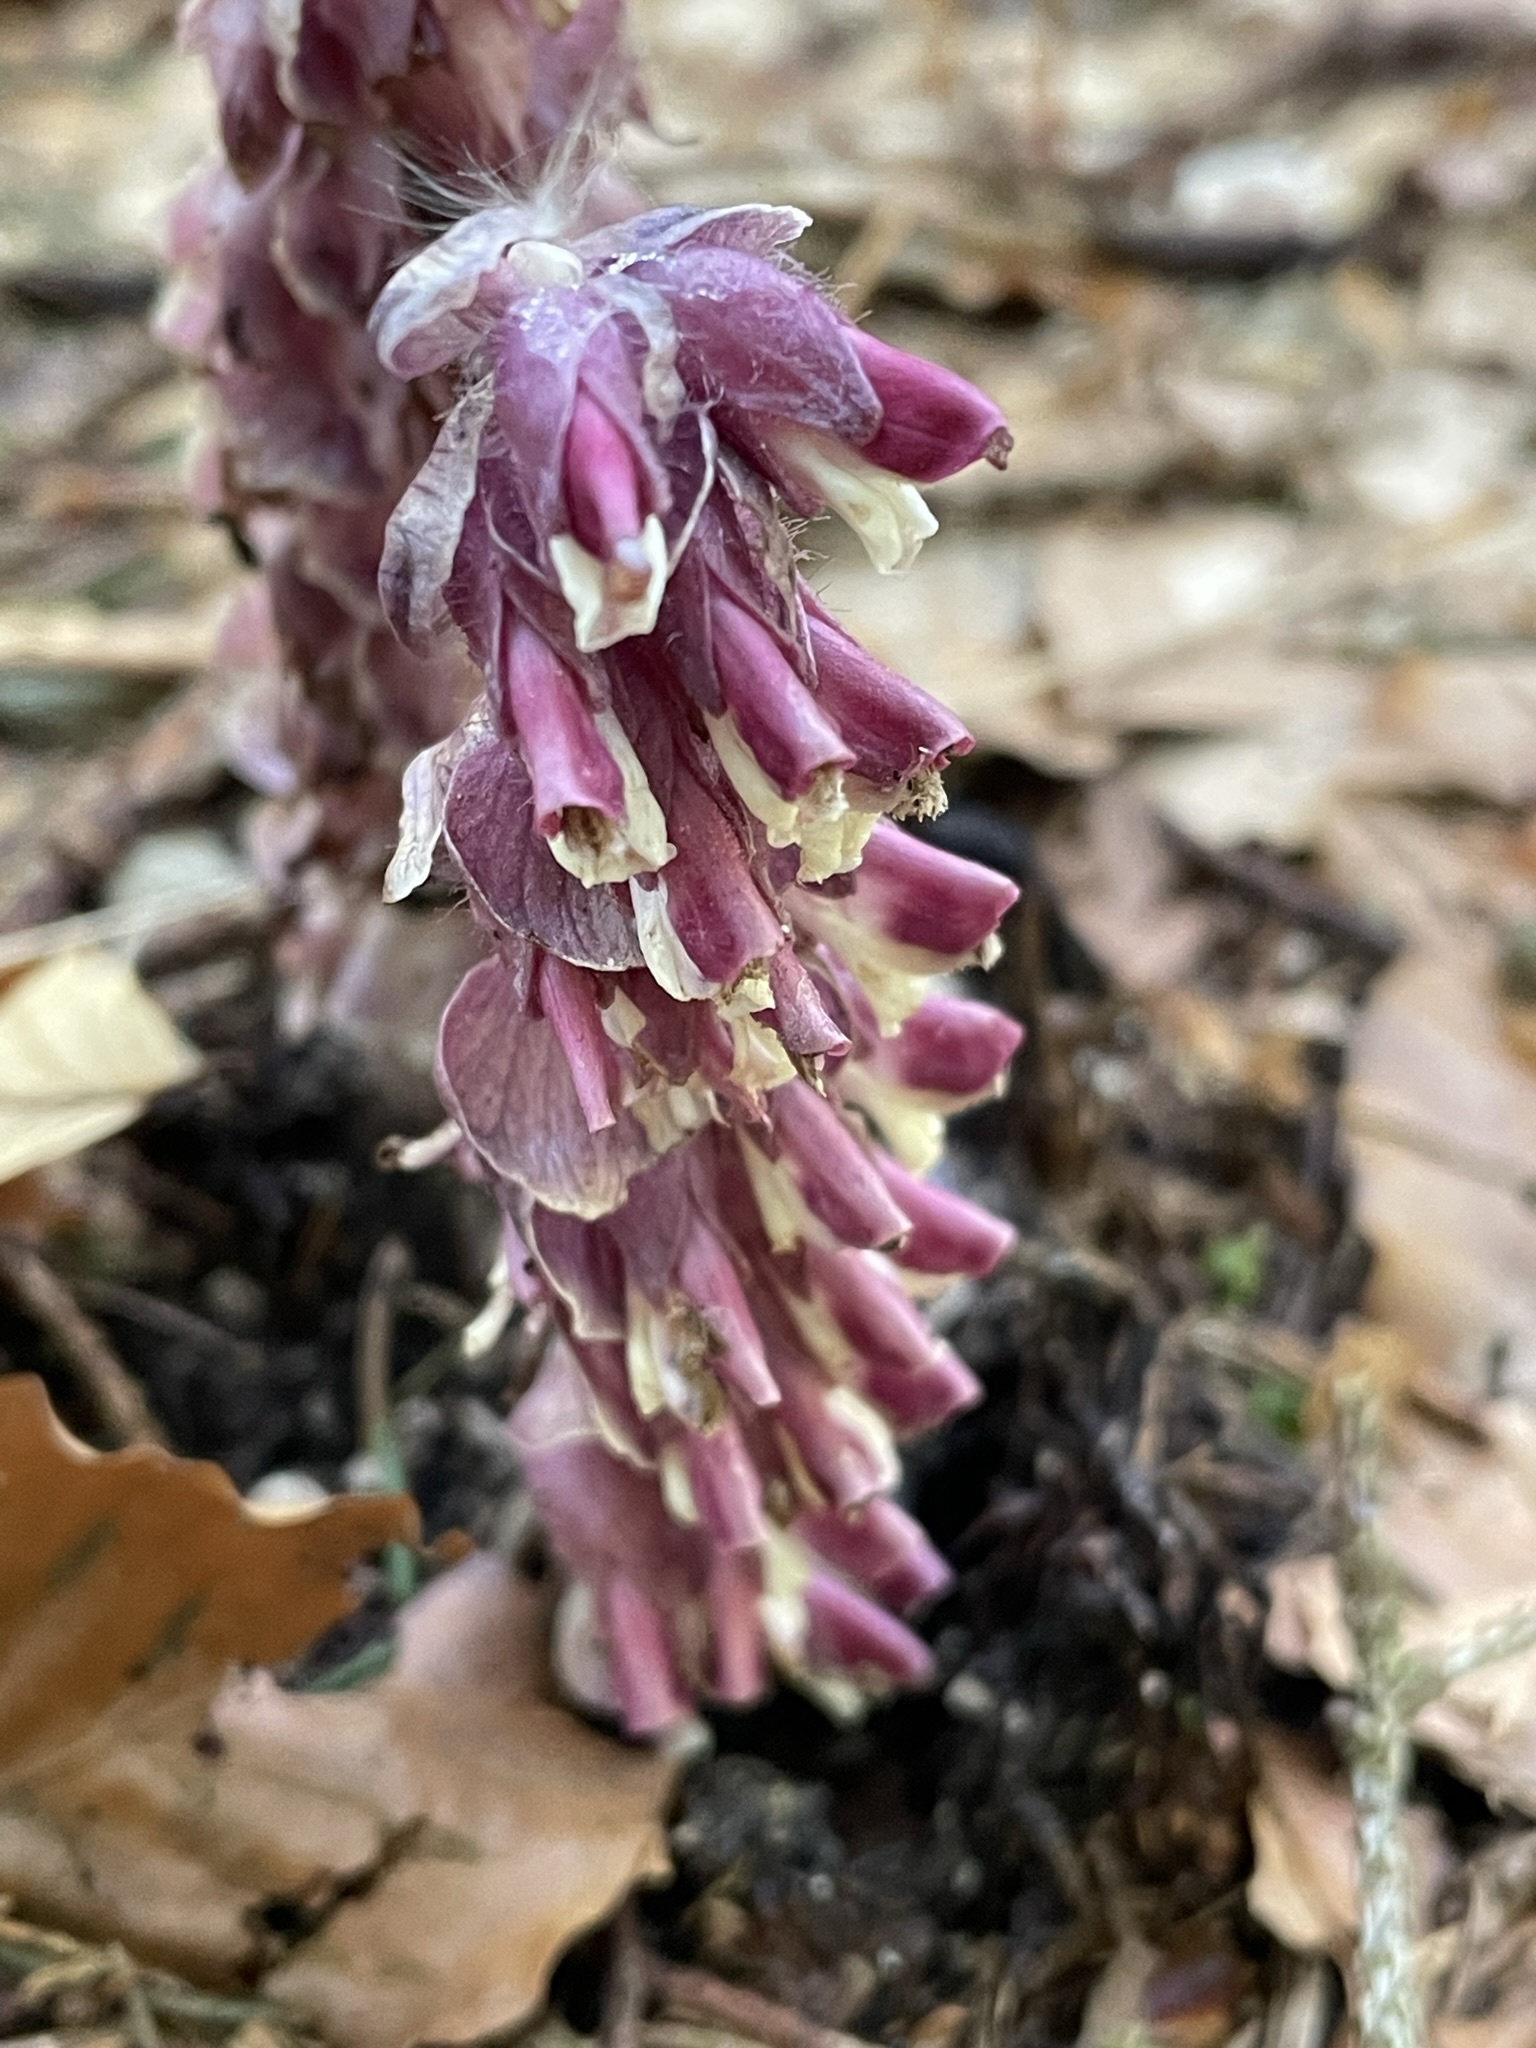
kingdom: Plantae
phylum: Tracheophyta
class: Magnoliopsida
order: Lamiales
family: Orobanchaceae
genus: Lathraea
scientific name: Lathraea squamaria
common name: Toothwort
